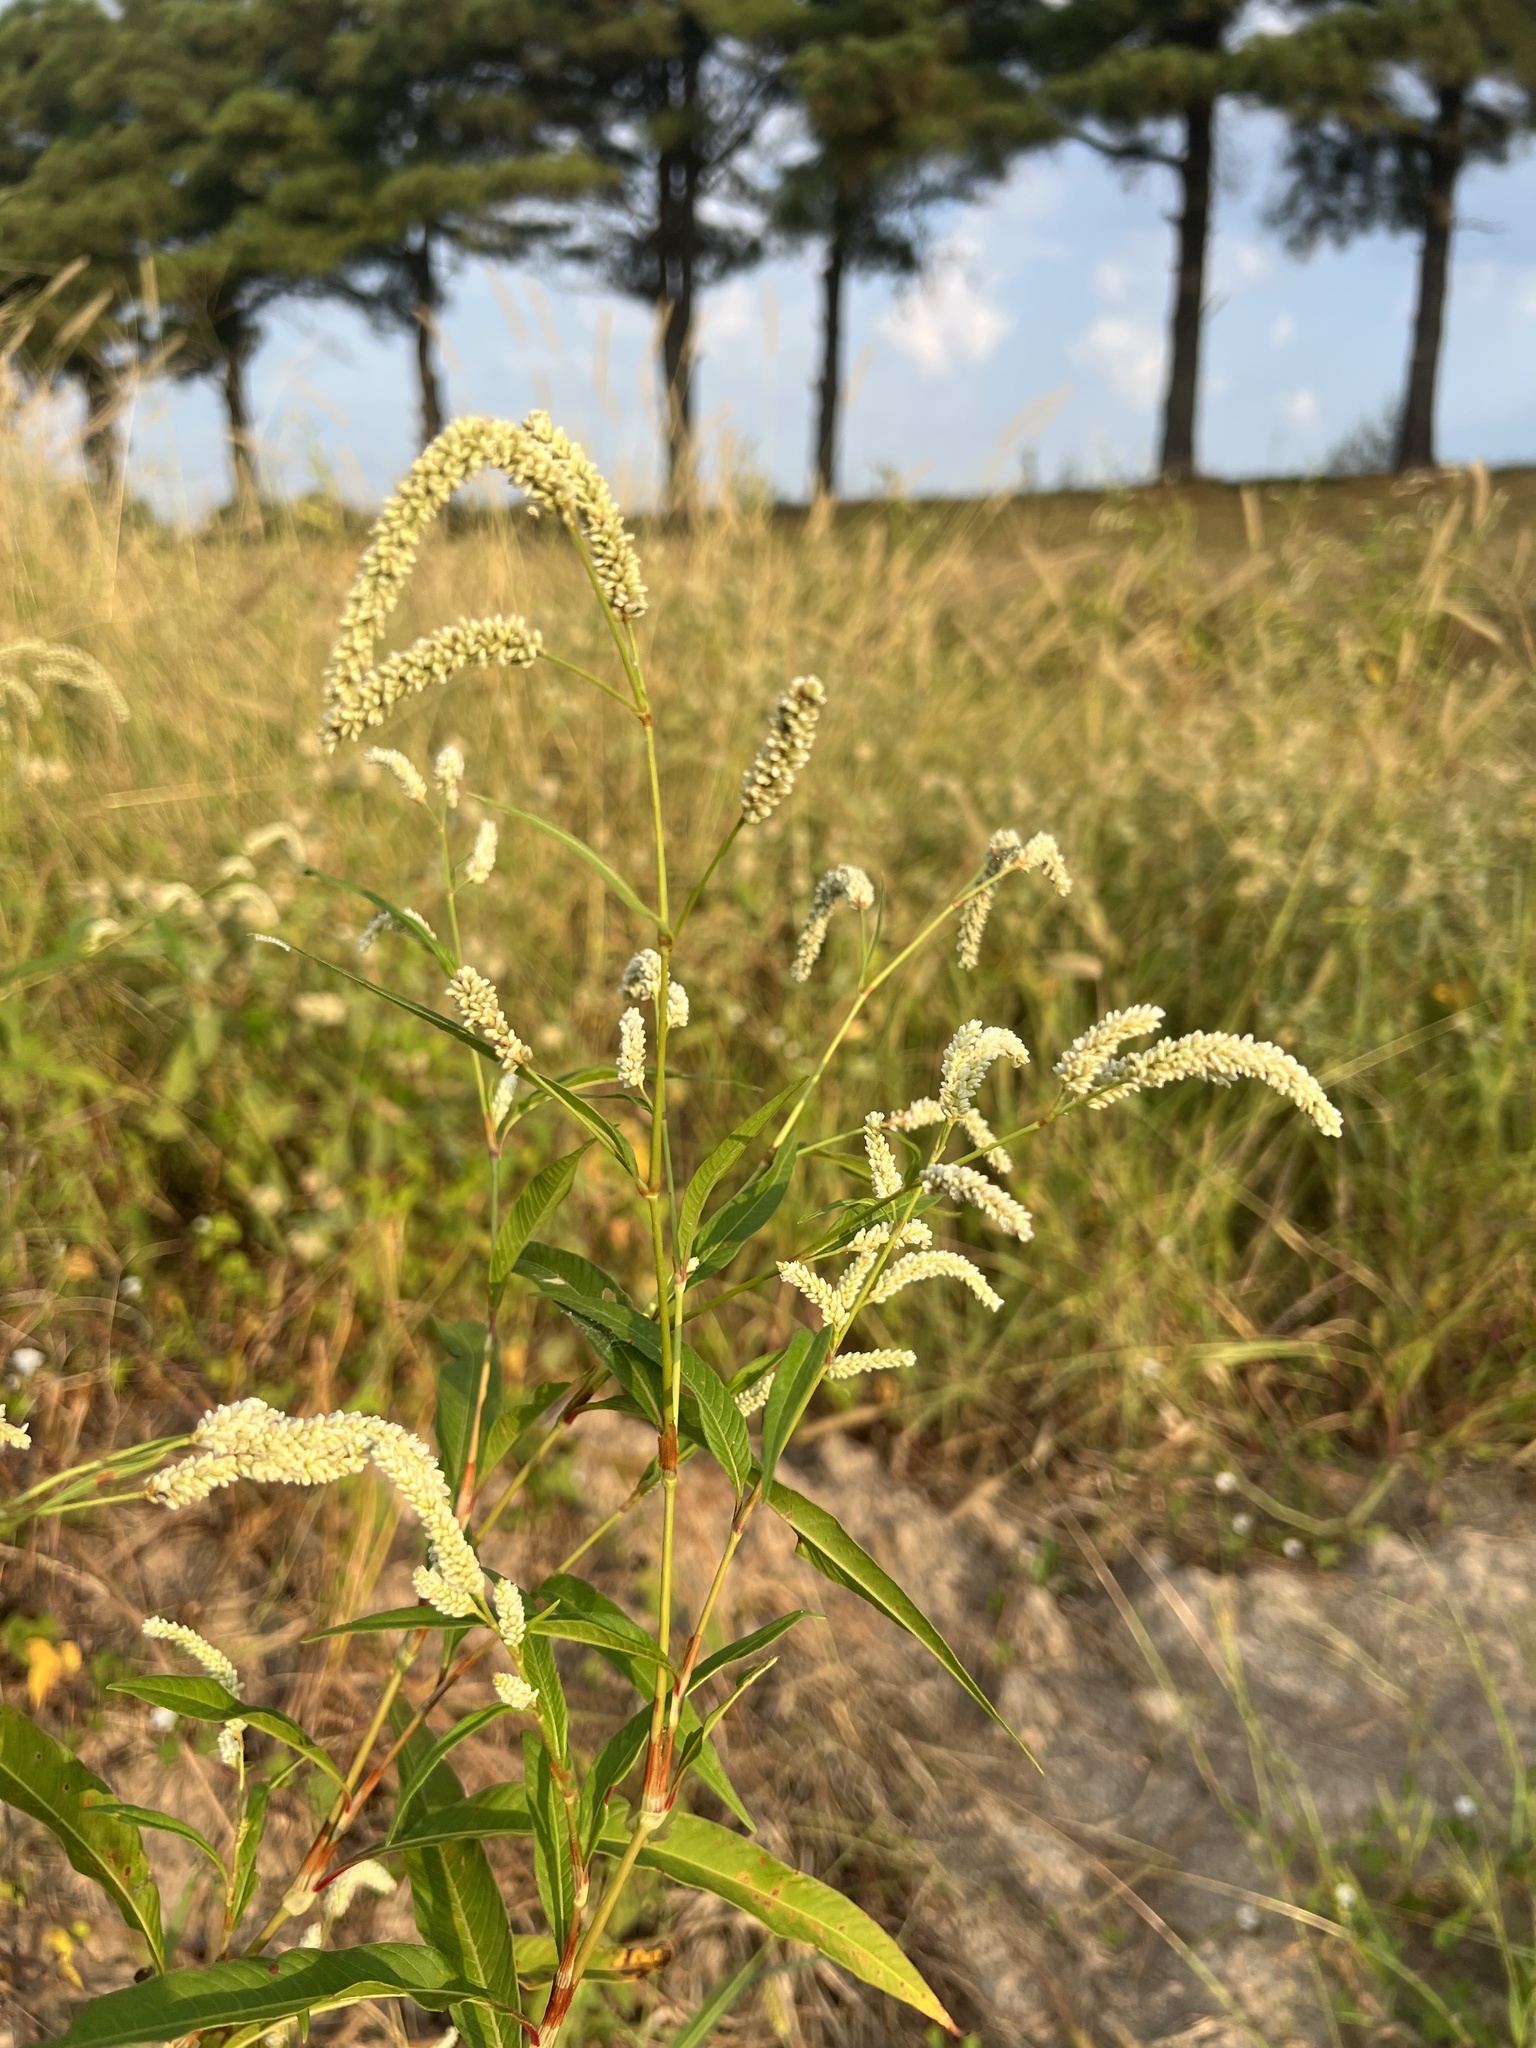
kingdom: Plantae
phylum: Tracheophyta
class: Magnoliopsida
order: Caryophyllales
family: Polygonaceae
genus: Persicaria
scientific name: Persicaria lapathifolia
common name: Curlytop knotweed
